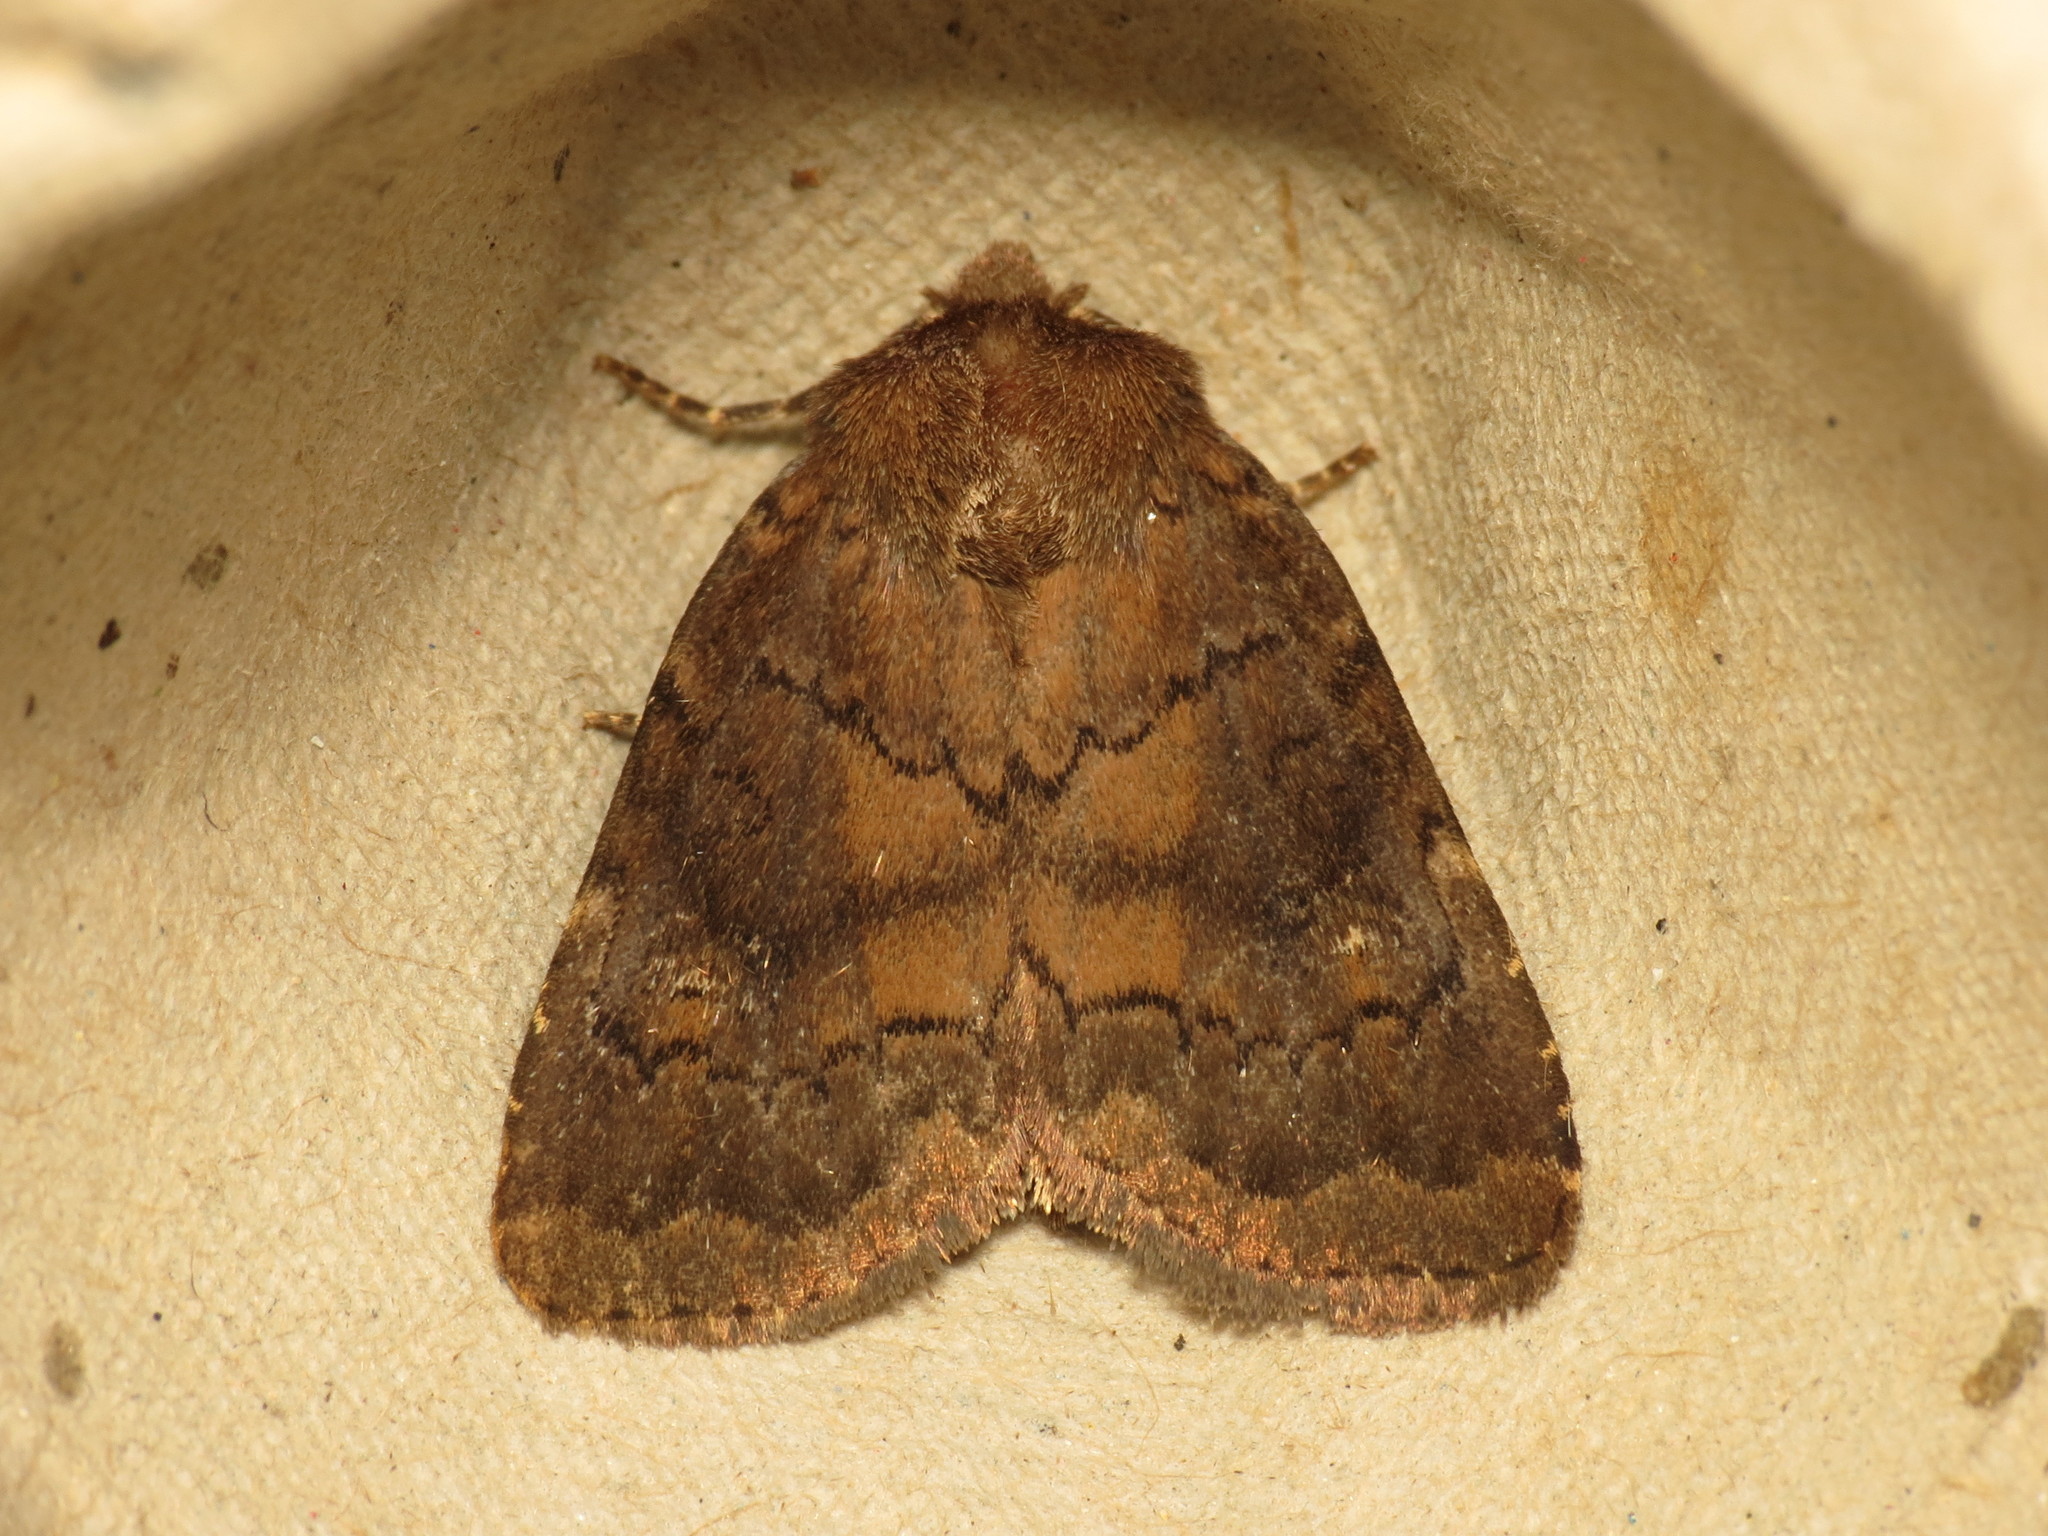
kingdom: Animalia
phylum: Arthropoda
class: Insecta
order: Lepidoptera
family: Noctuidae
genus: Charanyca
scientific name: Charanyca ferruginea
